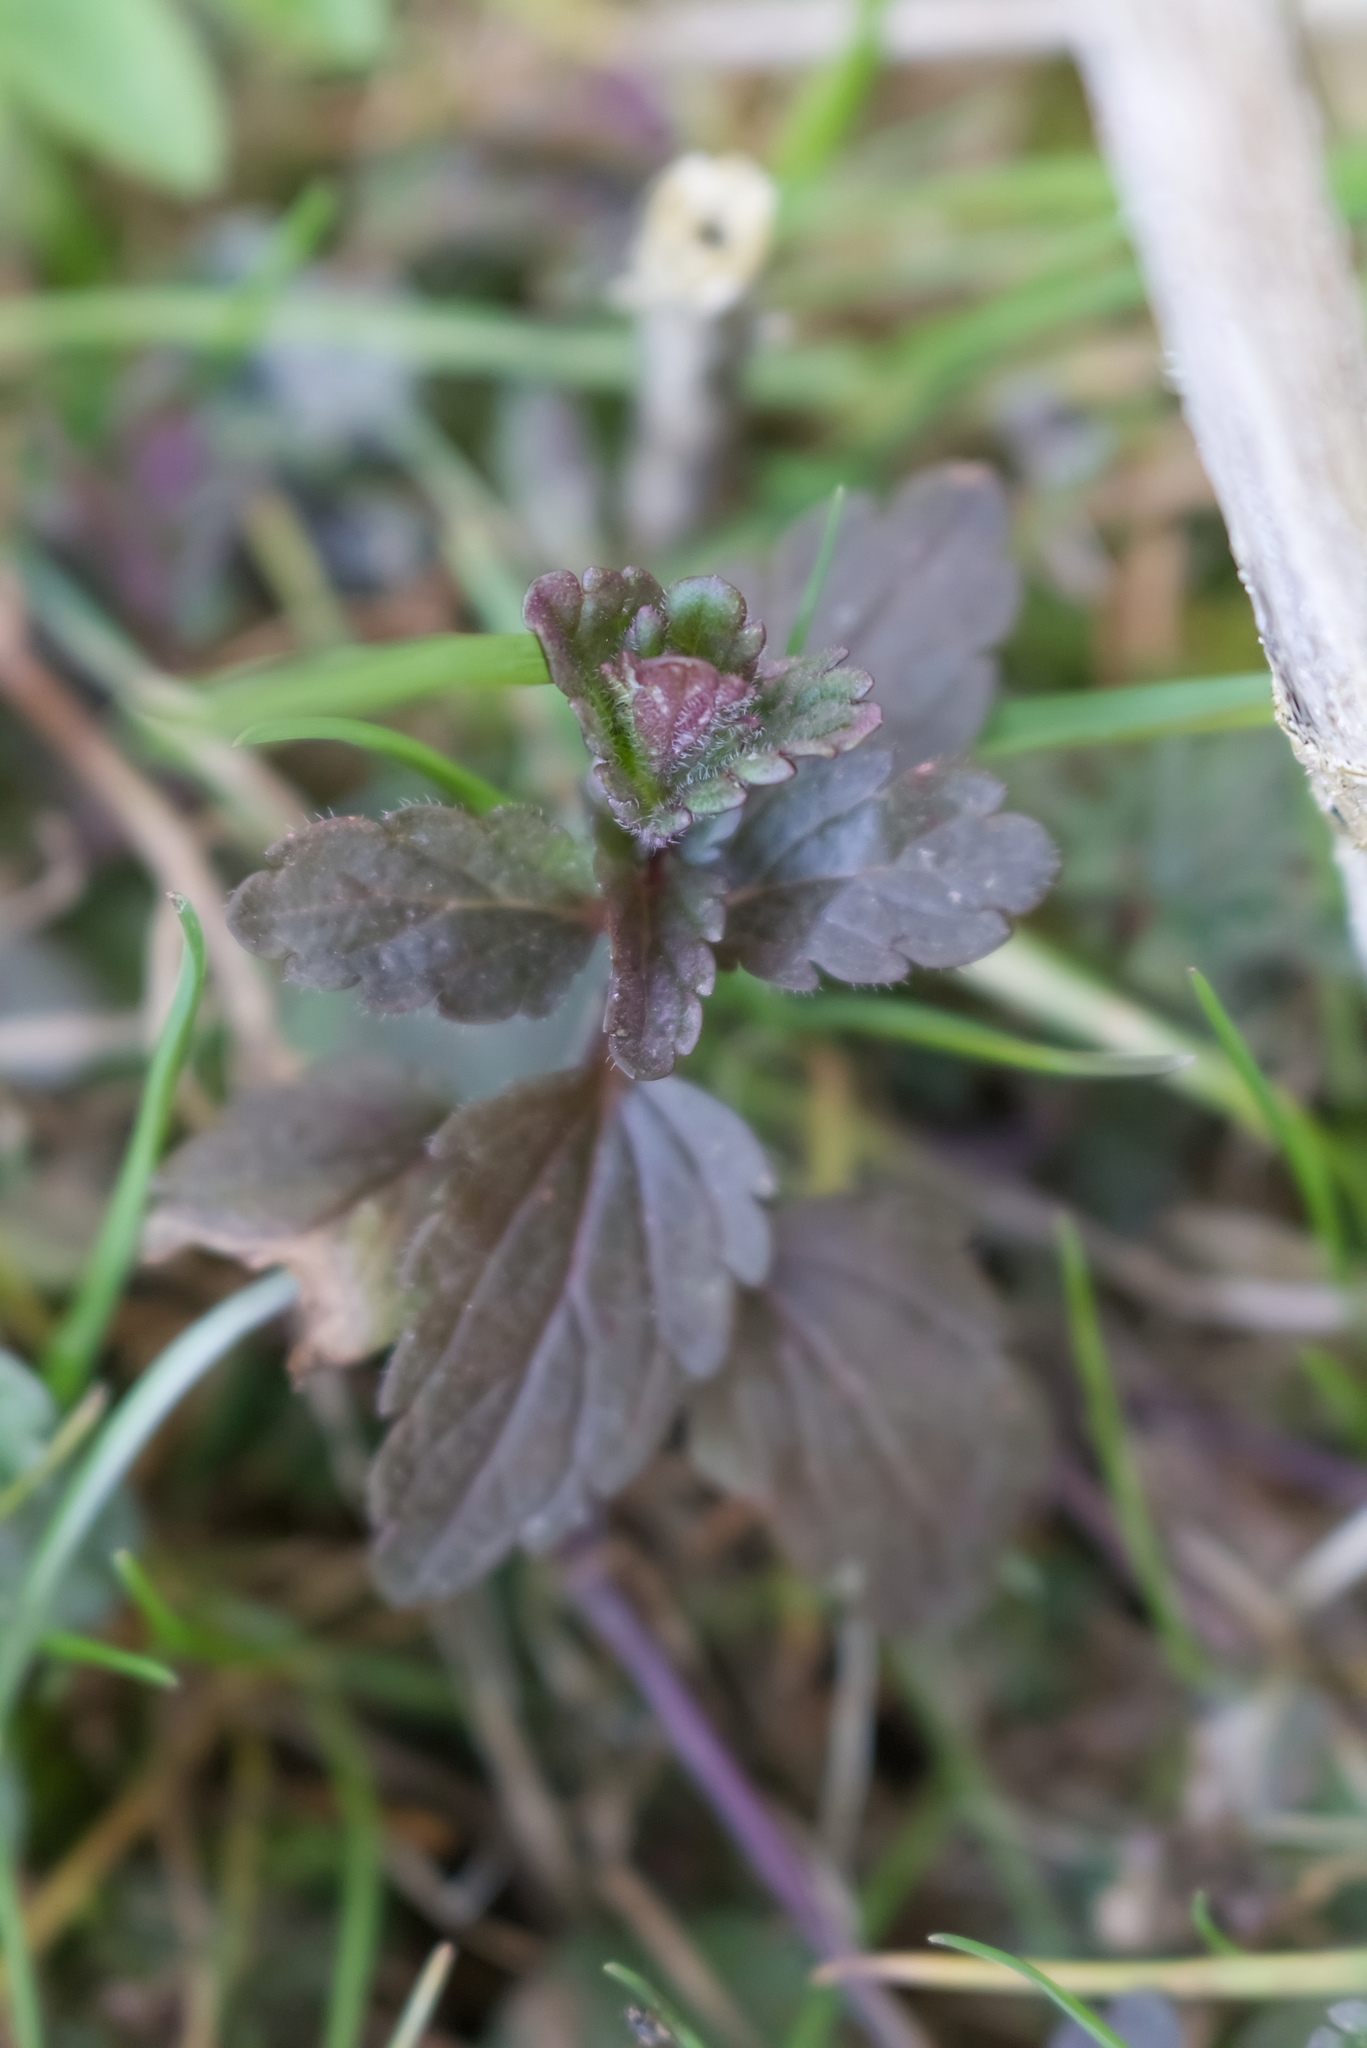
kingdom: Plantae
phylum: Tracheophyta
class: Magnoliopsida
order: Lamiales
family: Plantaginaceae
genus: Veronica
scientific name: Veronica chamaedrys
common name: Germander speedwell
